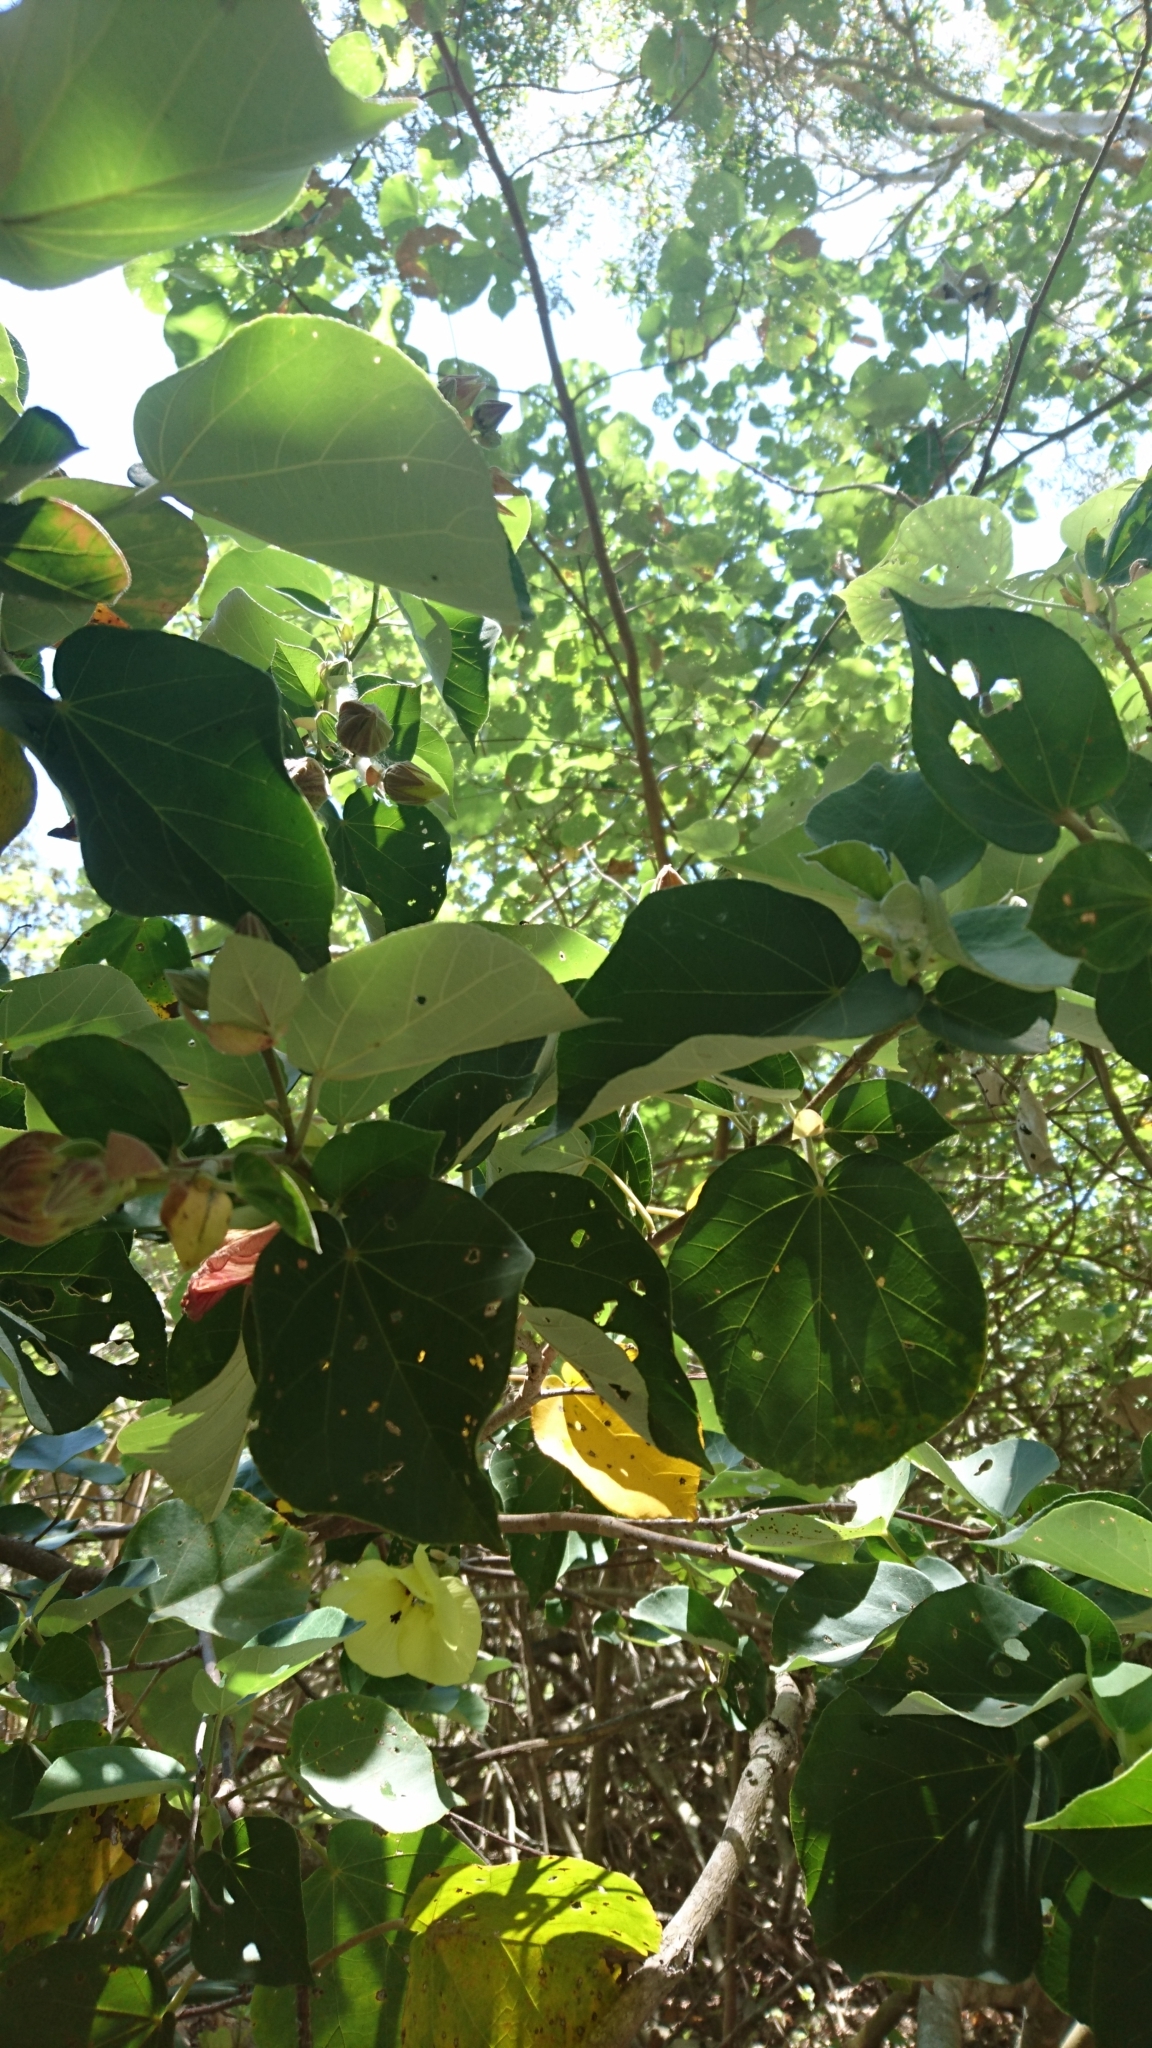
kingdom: Plantae
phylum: Tracheophyta
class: Magnoliopsida
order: Malvales
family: Malvaceae
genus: Talipariti
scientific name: Talipariti tiliaceum
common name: Sea hibiscus
